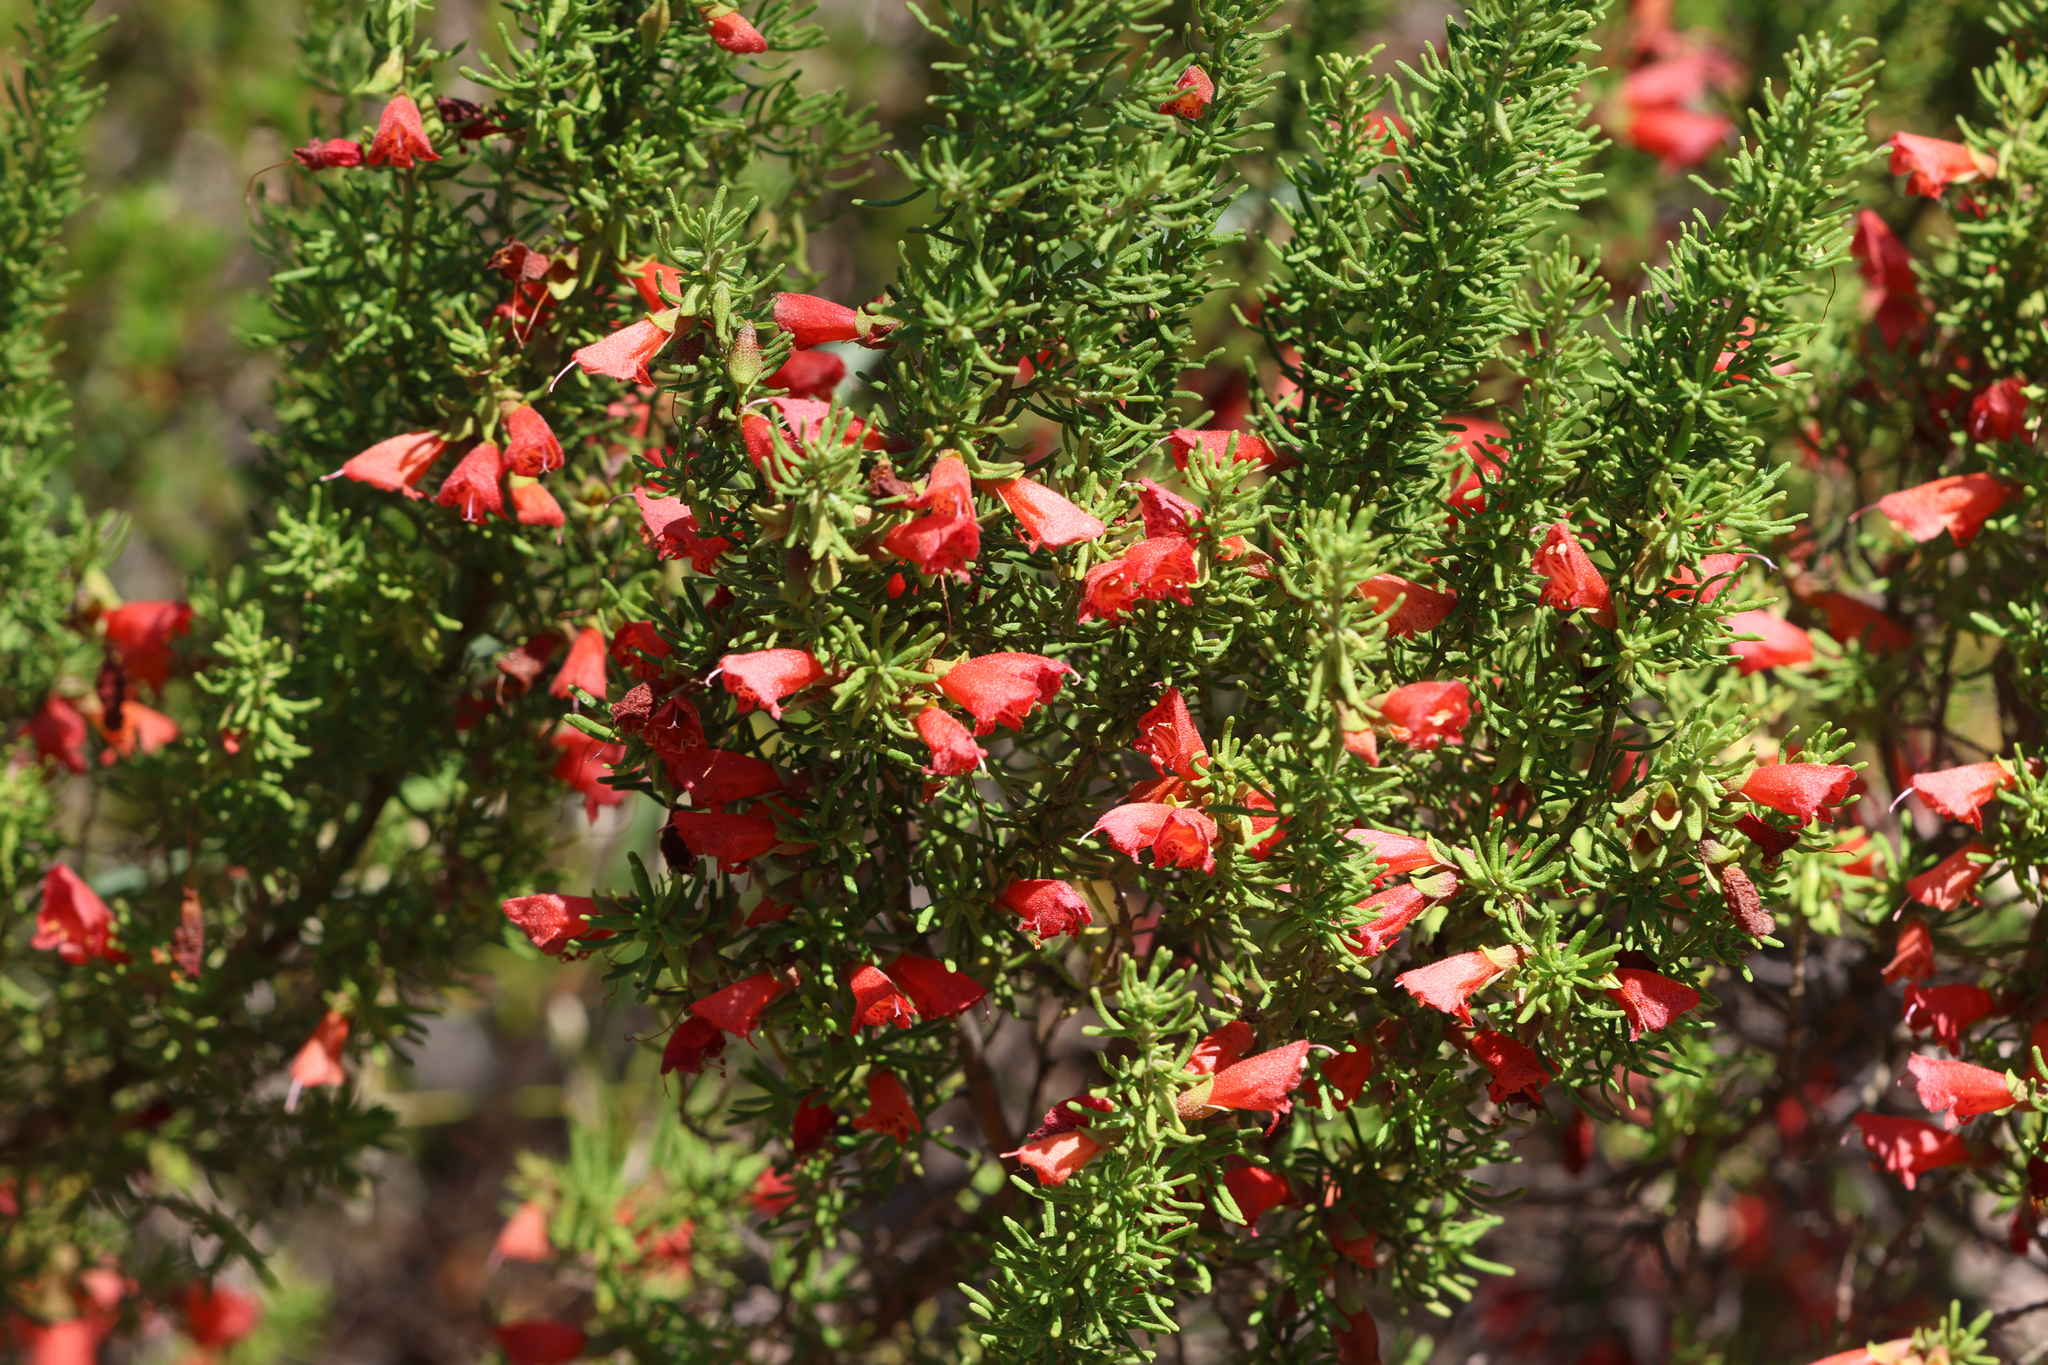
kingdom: Plantae
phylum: Tracheophyta
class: Magnoliopsida
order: Lamiales
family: Lamiaceae
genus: Prostanthera
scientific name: Prostanthera aspalathoides
